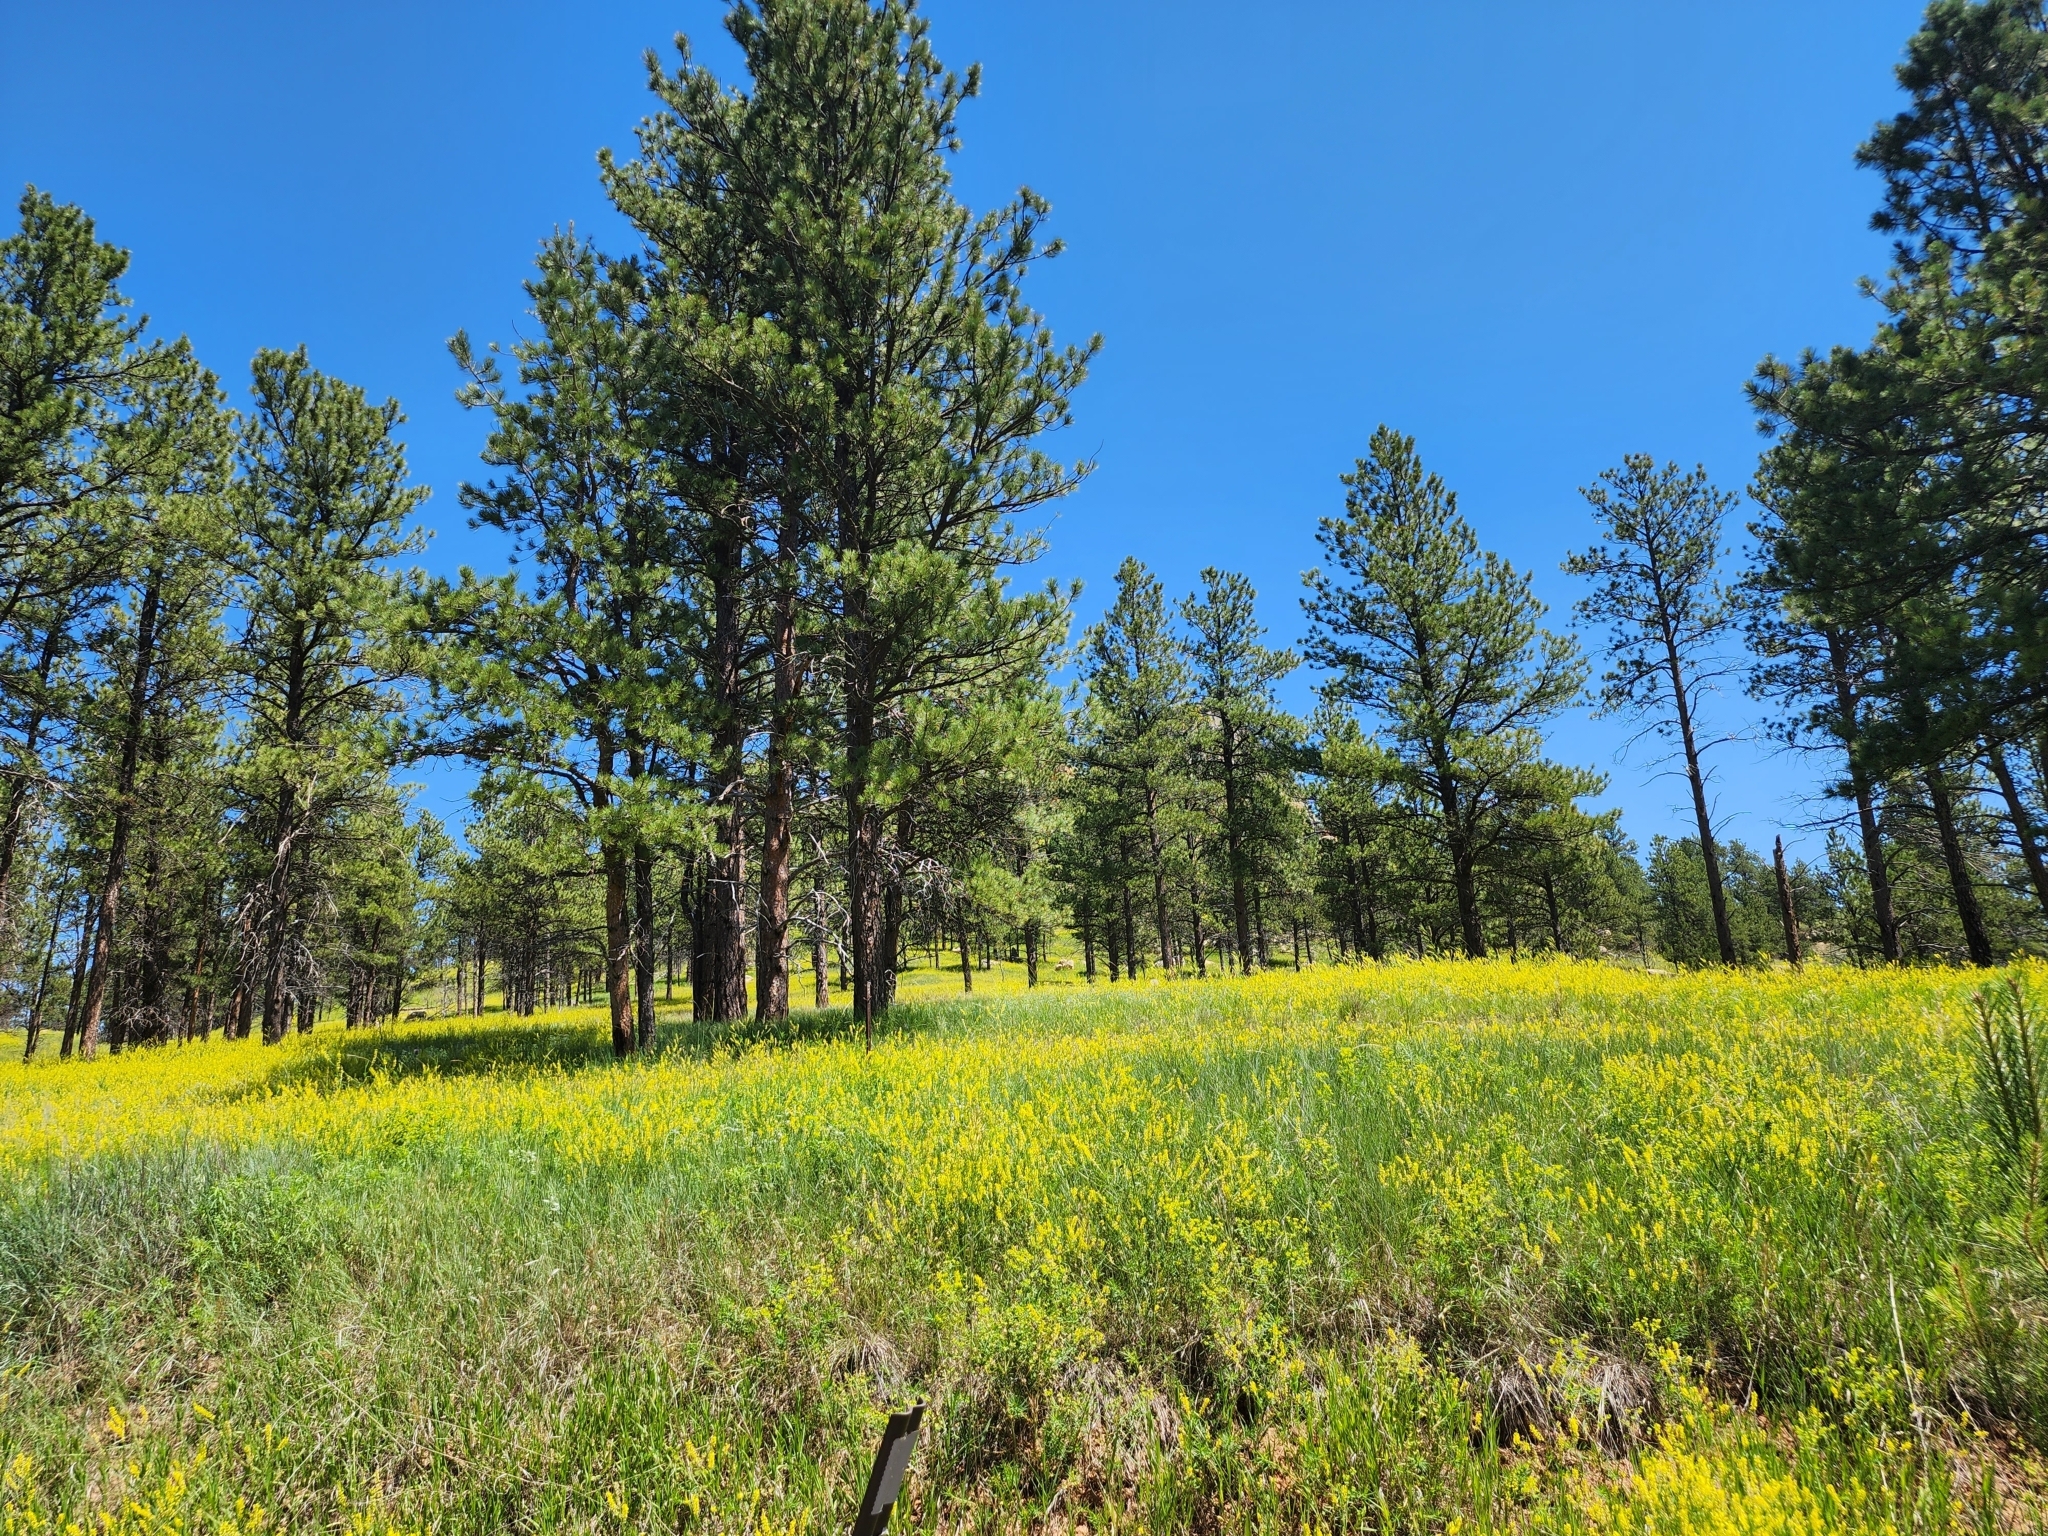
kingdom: Plantae
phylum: Tracheophyta
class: Magnoliopsida
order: Fabales
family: Fabaceae
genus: Melilotus
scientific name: Melilotus officinalis
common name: Sweetclover
